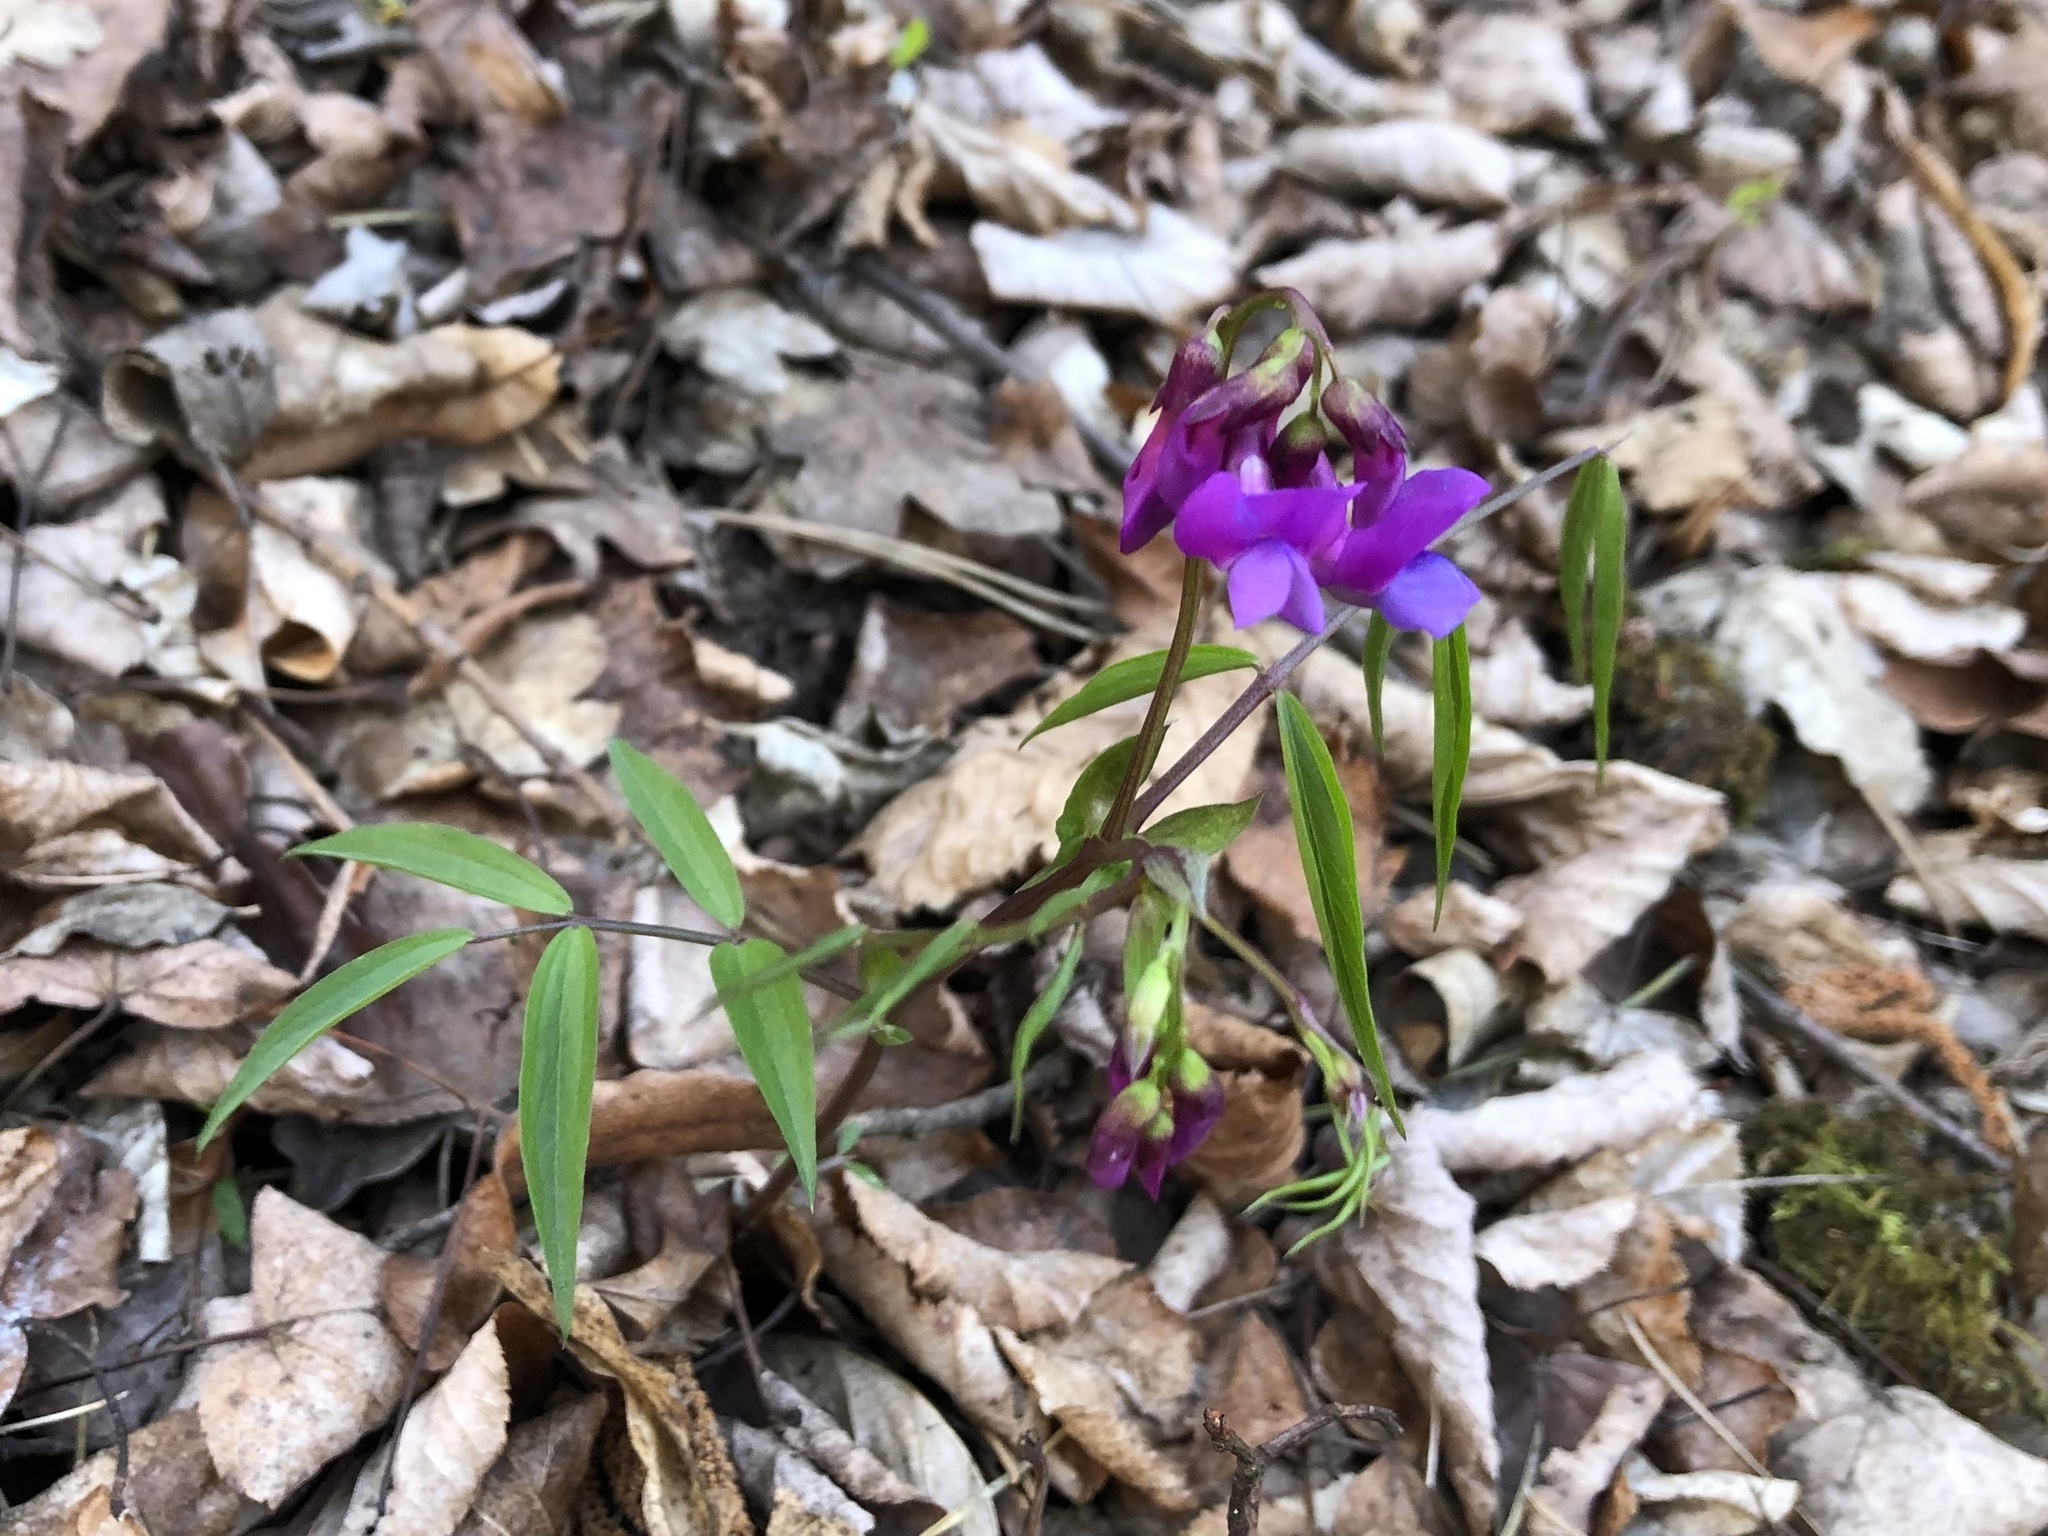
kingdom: Plantae
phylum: Tracheophyta
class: Magnoliopsida
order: Fabales
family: Fabaceae
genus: Lathyrus
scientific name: Lathyrus vernus
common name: Spring pea
